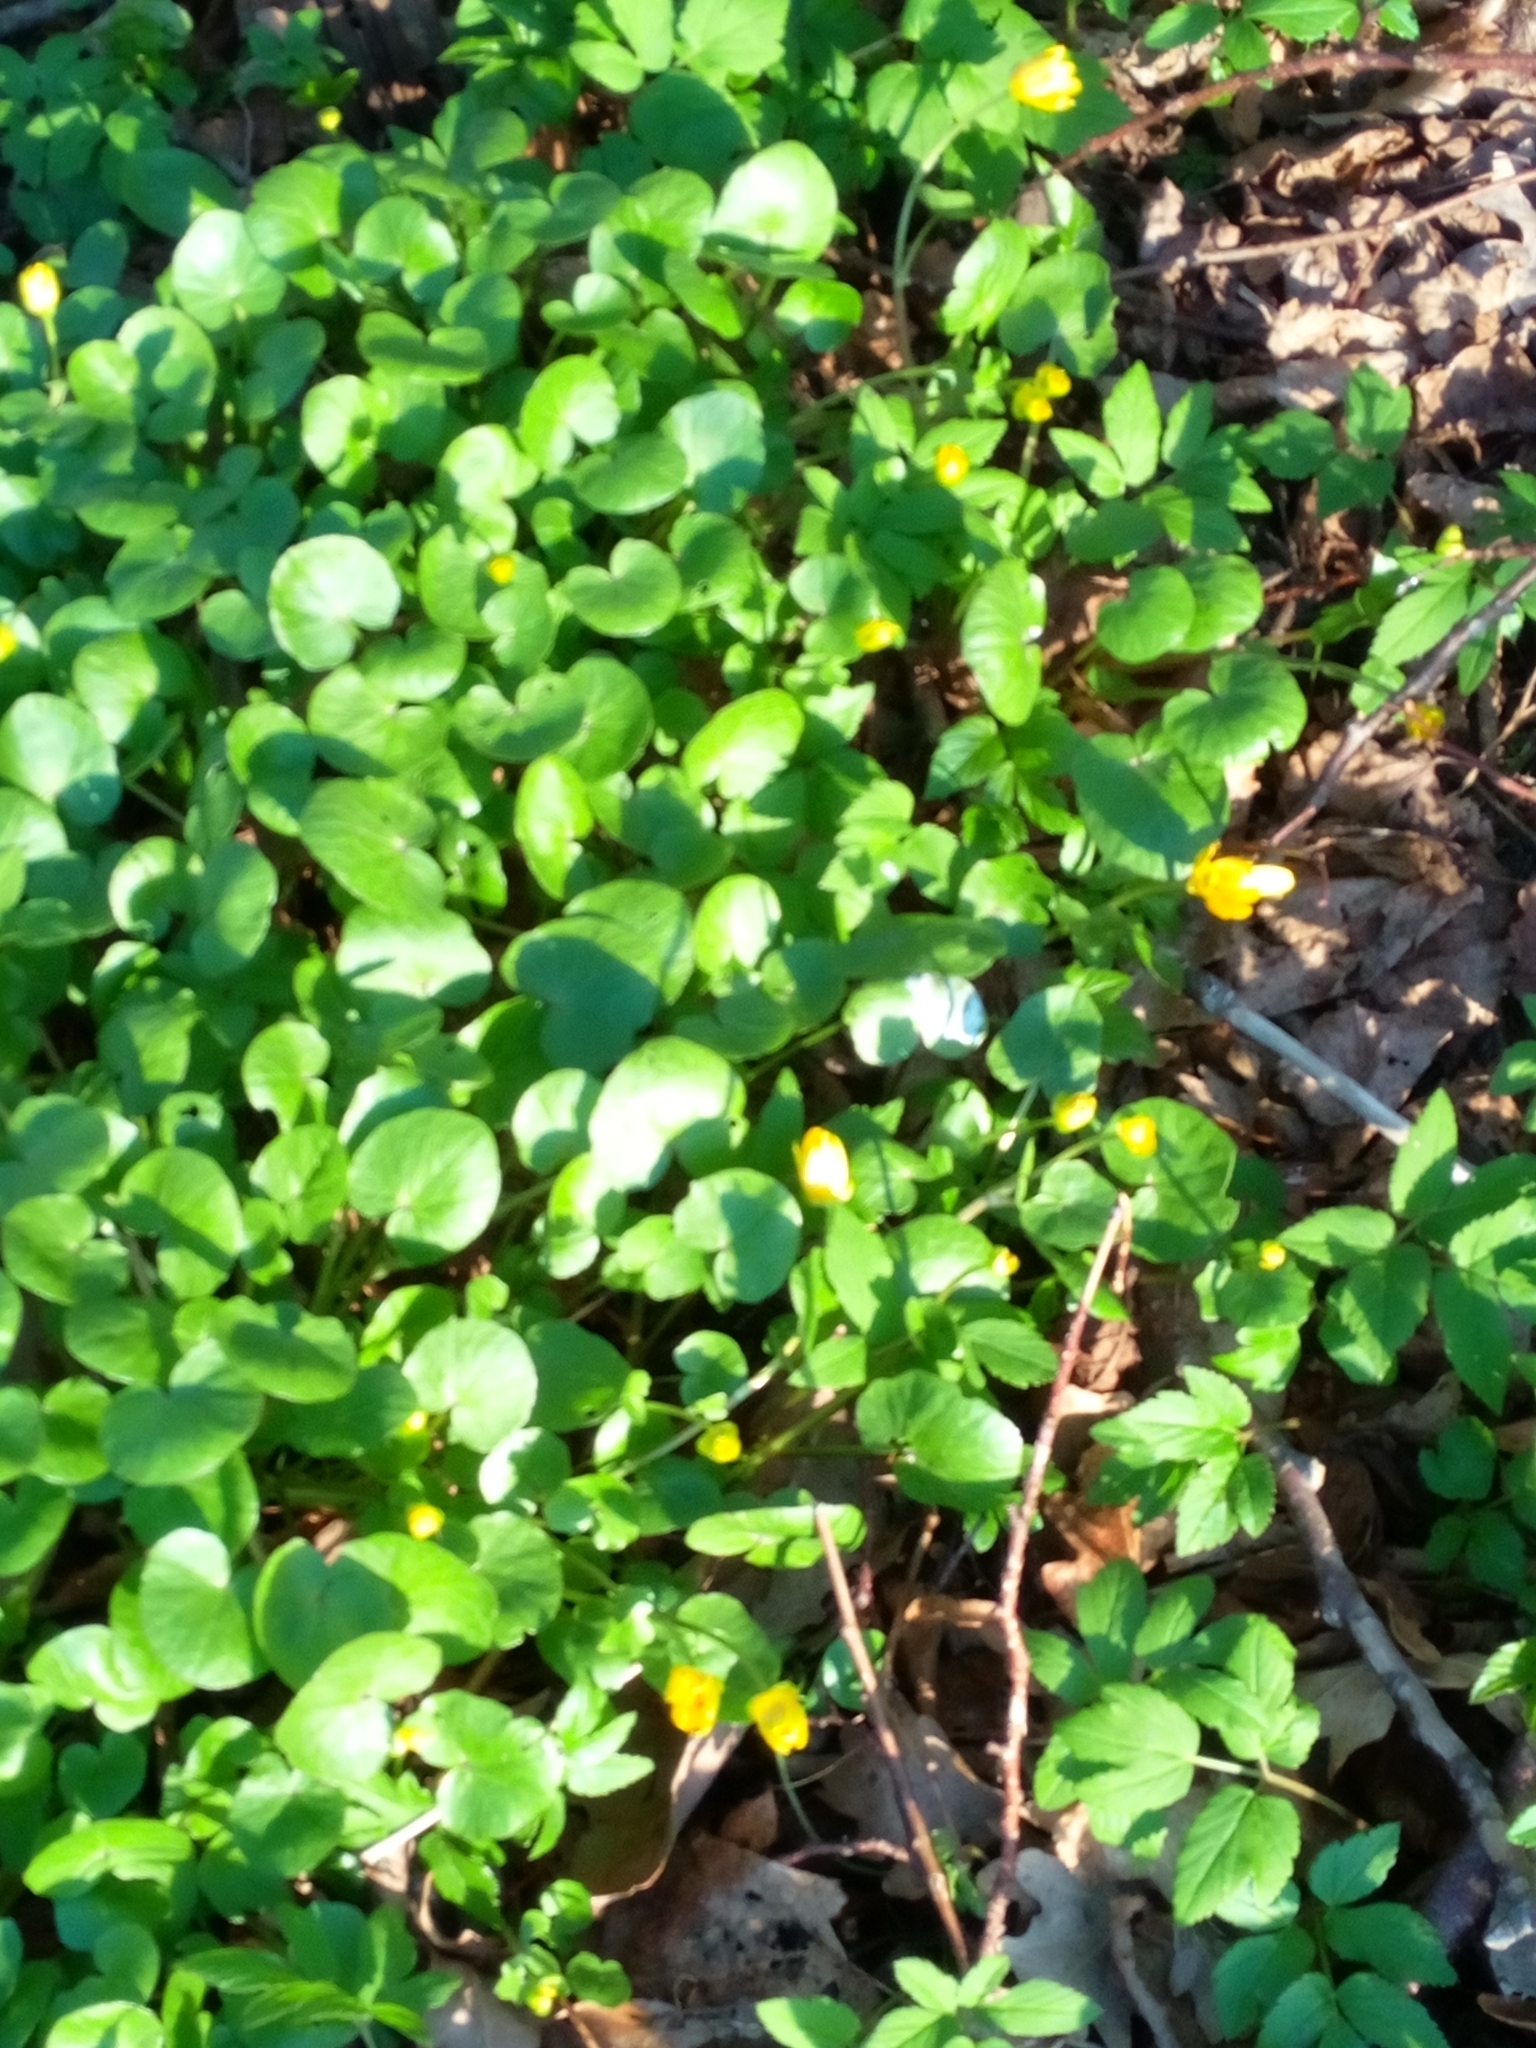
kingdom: Plantae
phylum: Tracheophyta
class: Magnoliopsida
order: Ranunculales
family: Ranunculaceae
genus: Ficaria
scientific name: Ficaria verna
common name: Lesser celandine
